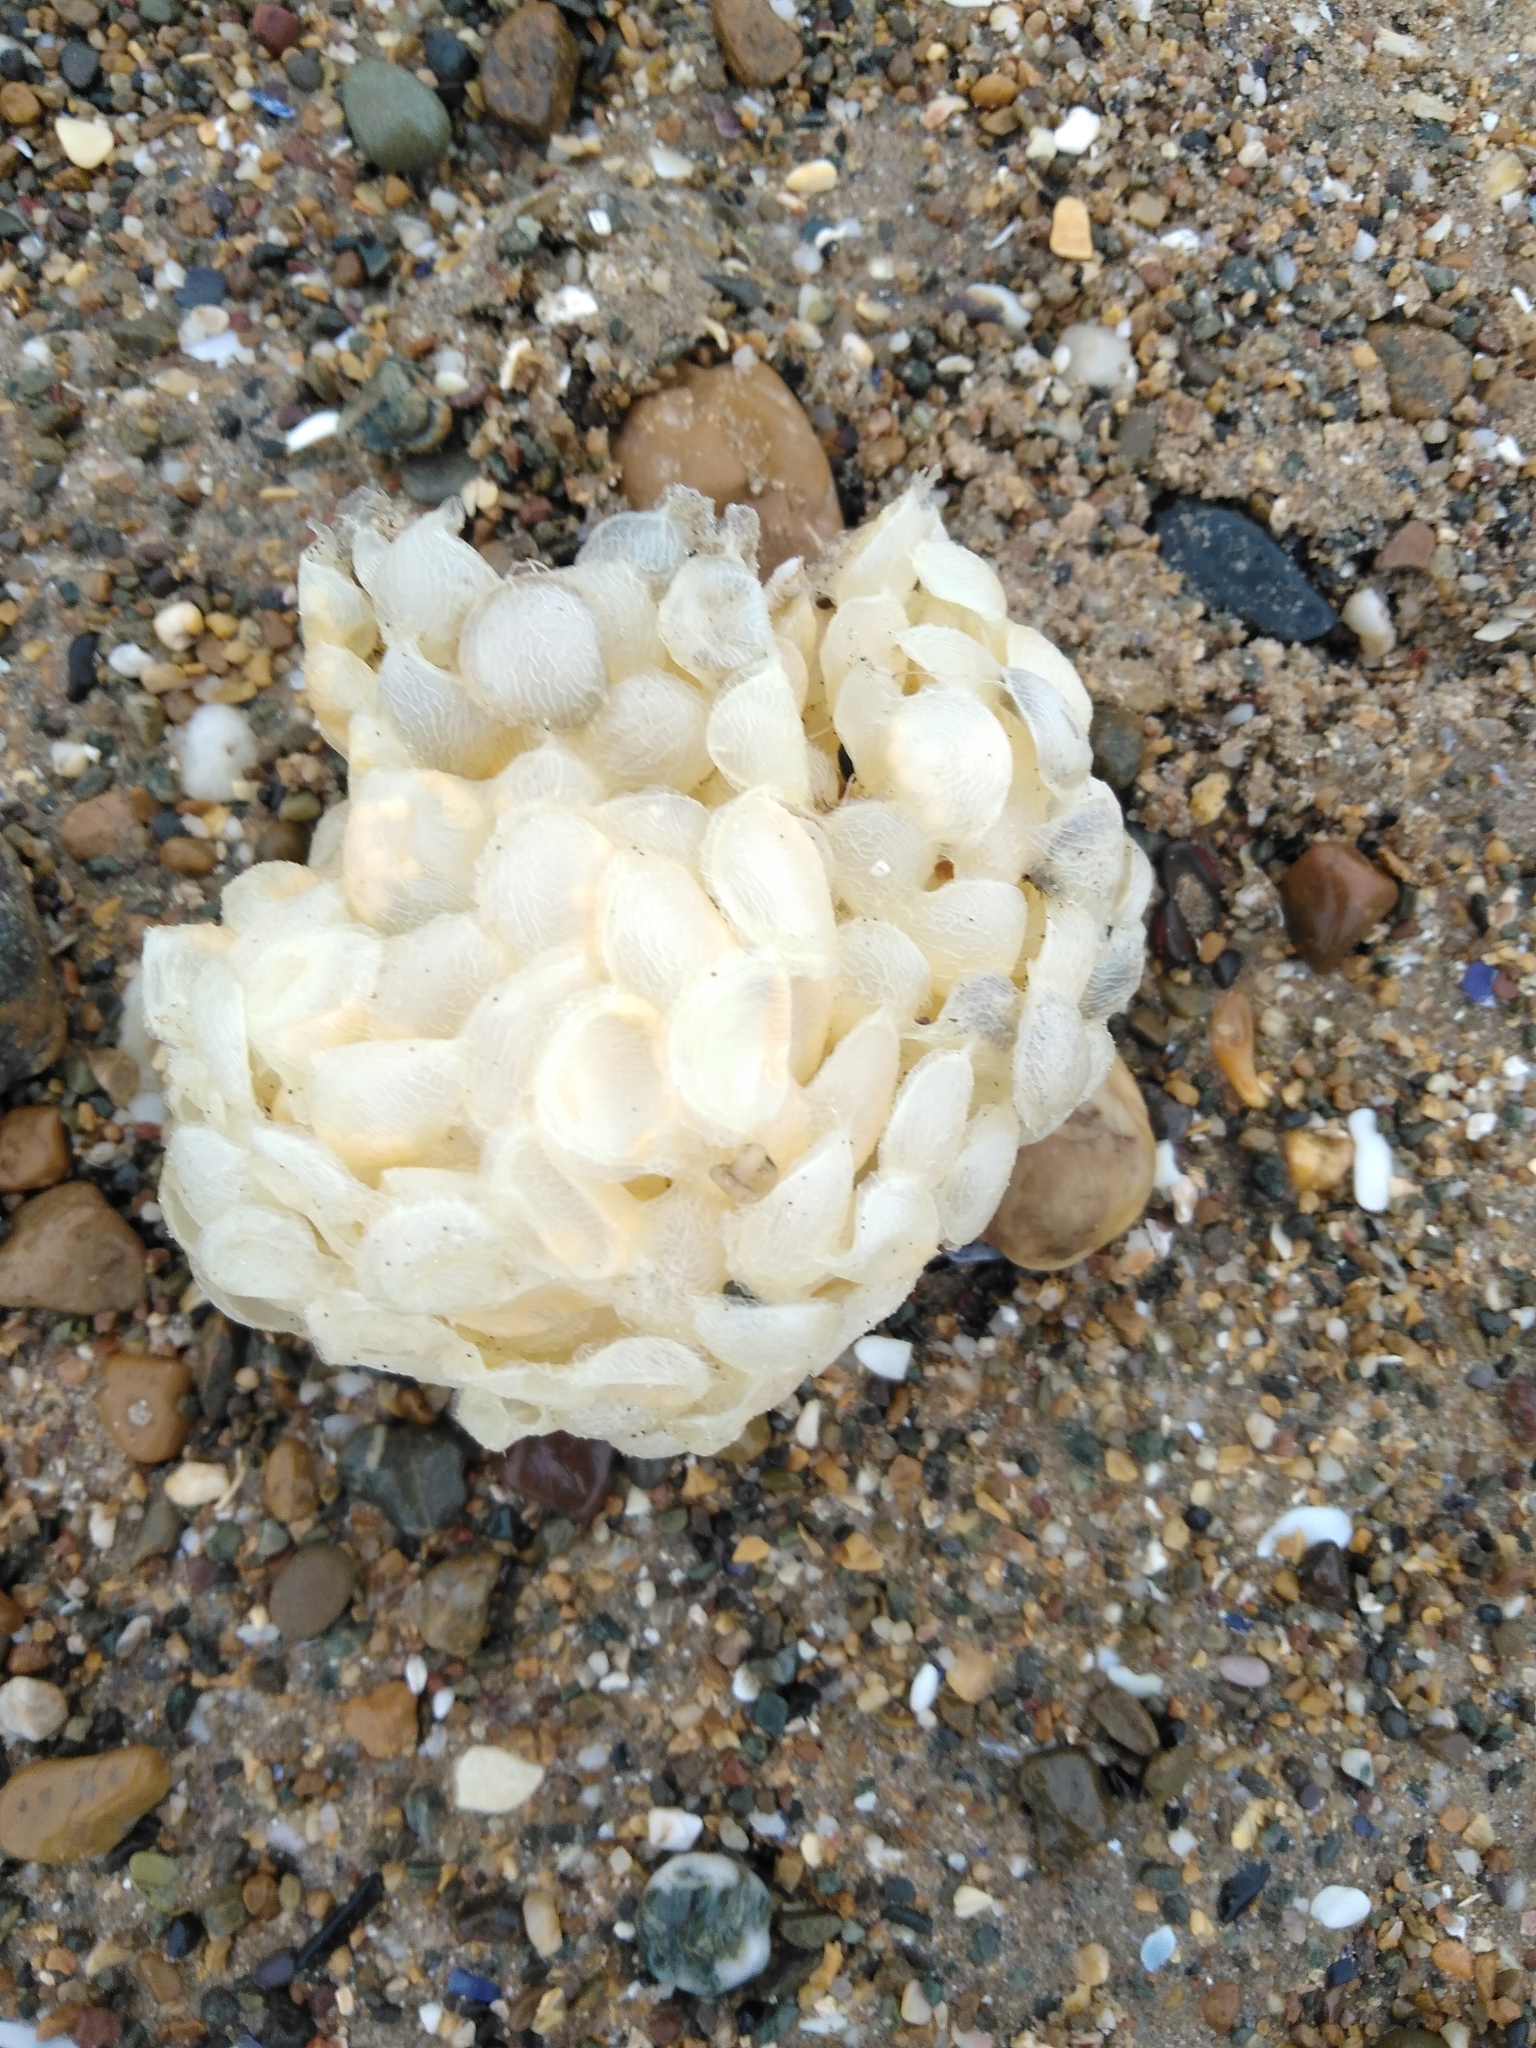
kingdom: Animalia
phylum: Mollusca
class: Gastropoda
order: Neogastropoda
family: Buccinidae
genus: Buccinum
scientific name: Buccinum undatum
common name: Common whelk
